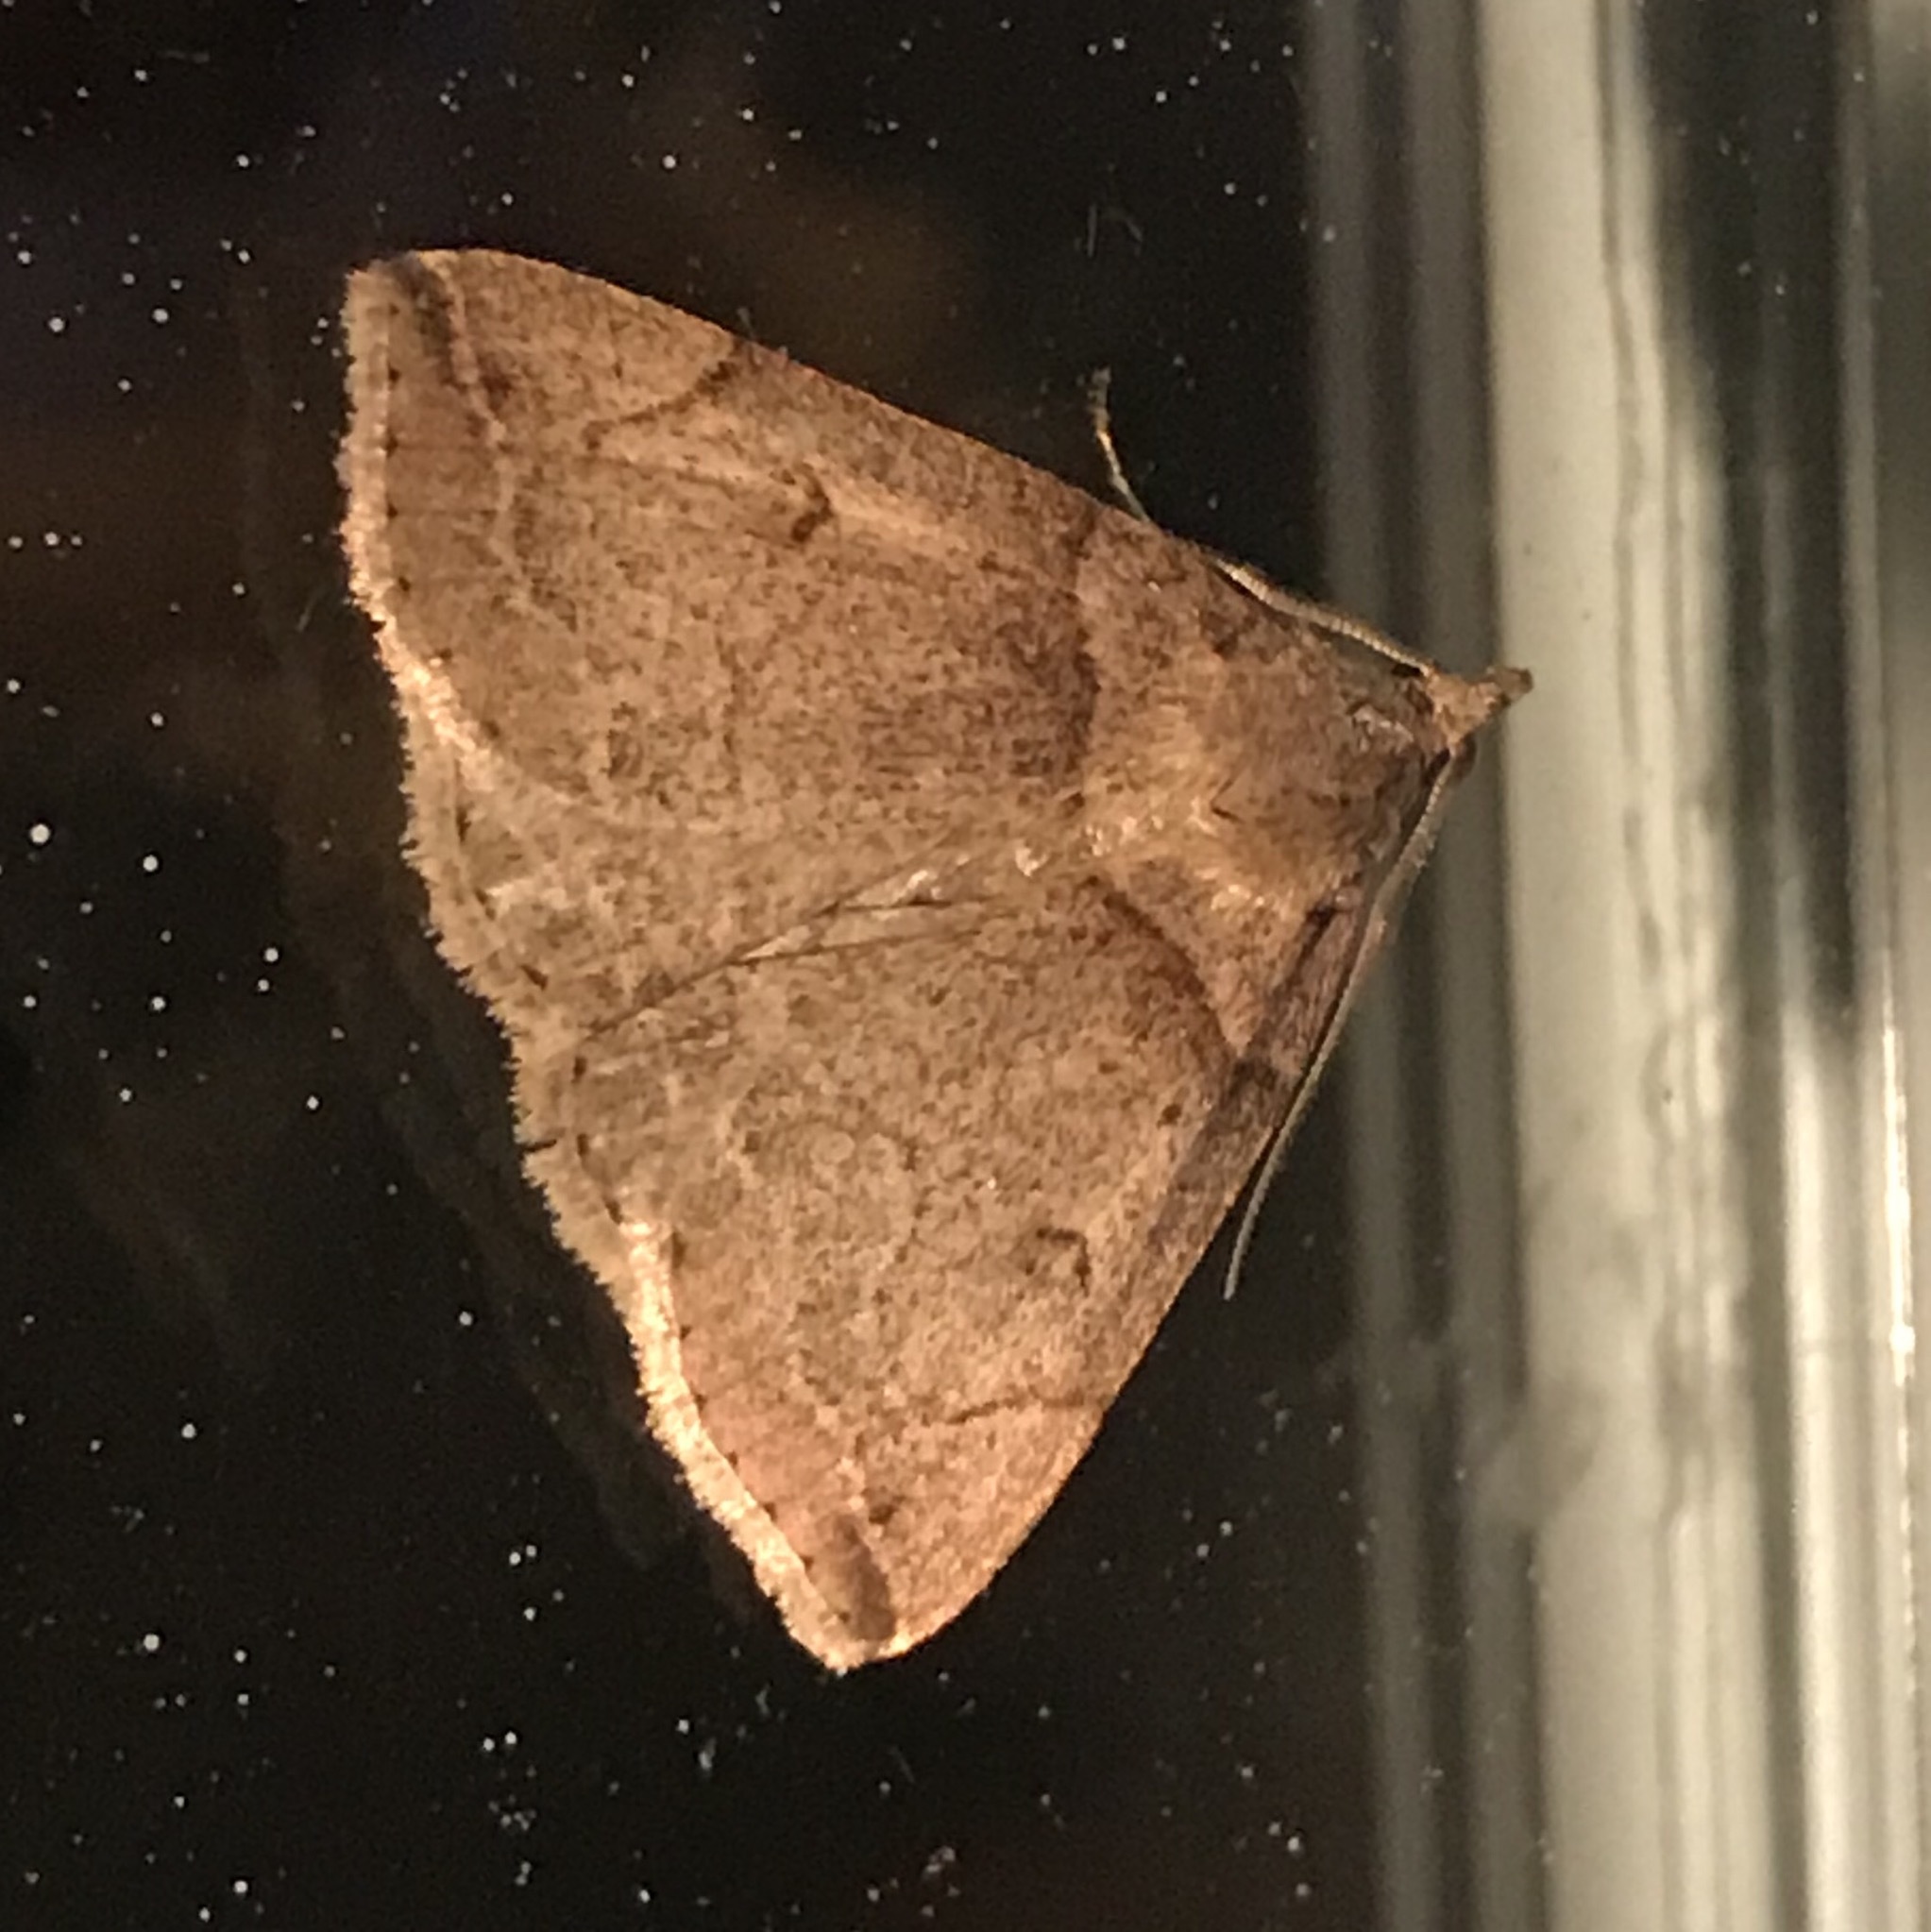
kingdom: Animalia
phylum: Arthropoda
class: Insecta
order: Lepidoptera
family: Erebidae
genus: Zanclognatha
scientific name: Zanclognatha laevigata
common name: Variable fan-foot
